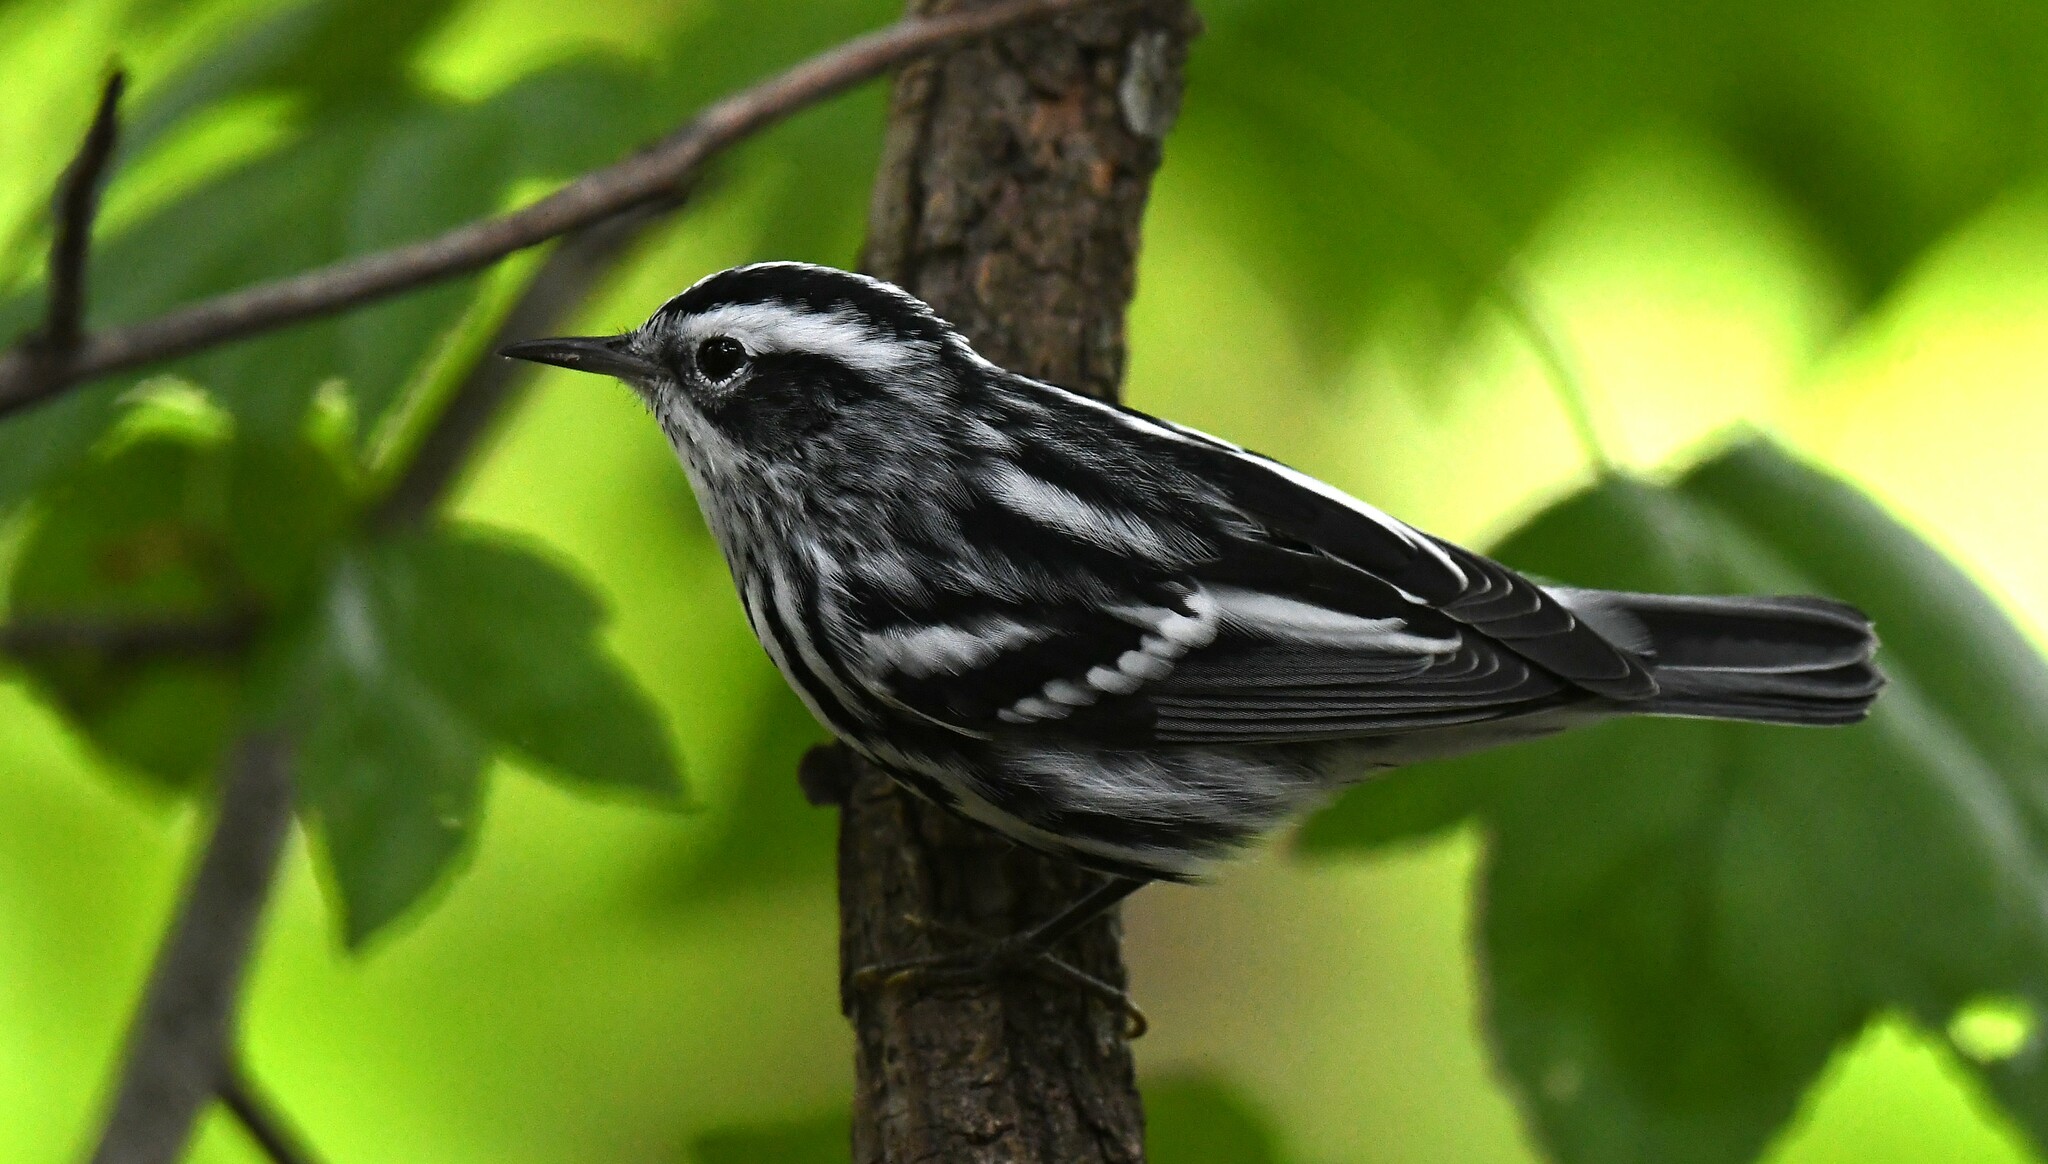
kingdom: Animalia
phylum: Chordata
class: Aves
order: Passeriformes
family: Parulidae
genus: Mniotilta
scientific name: Mniotilta varia
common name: Black-and-white warbler
